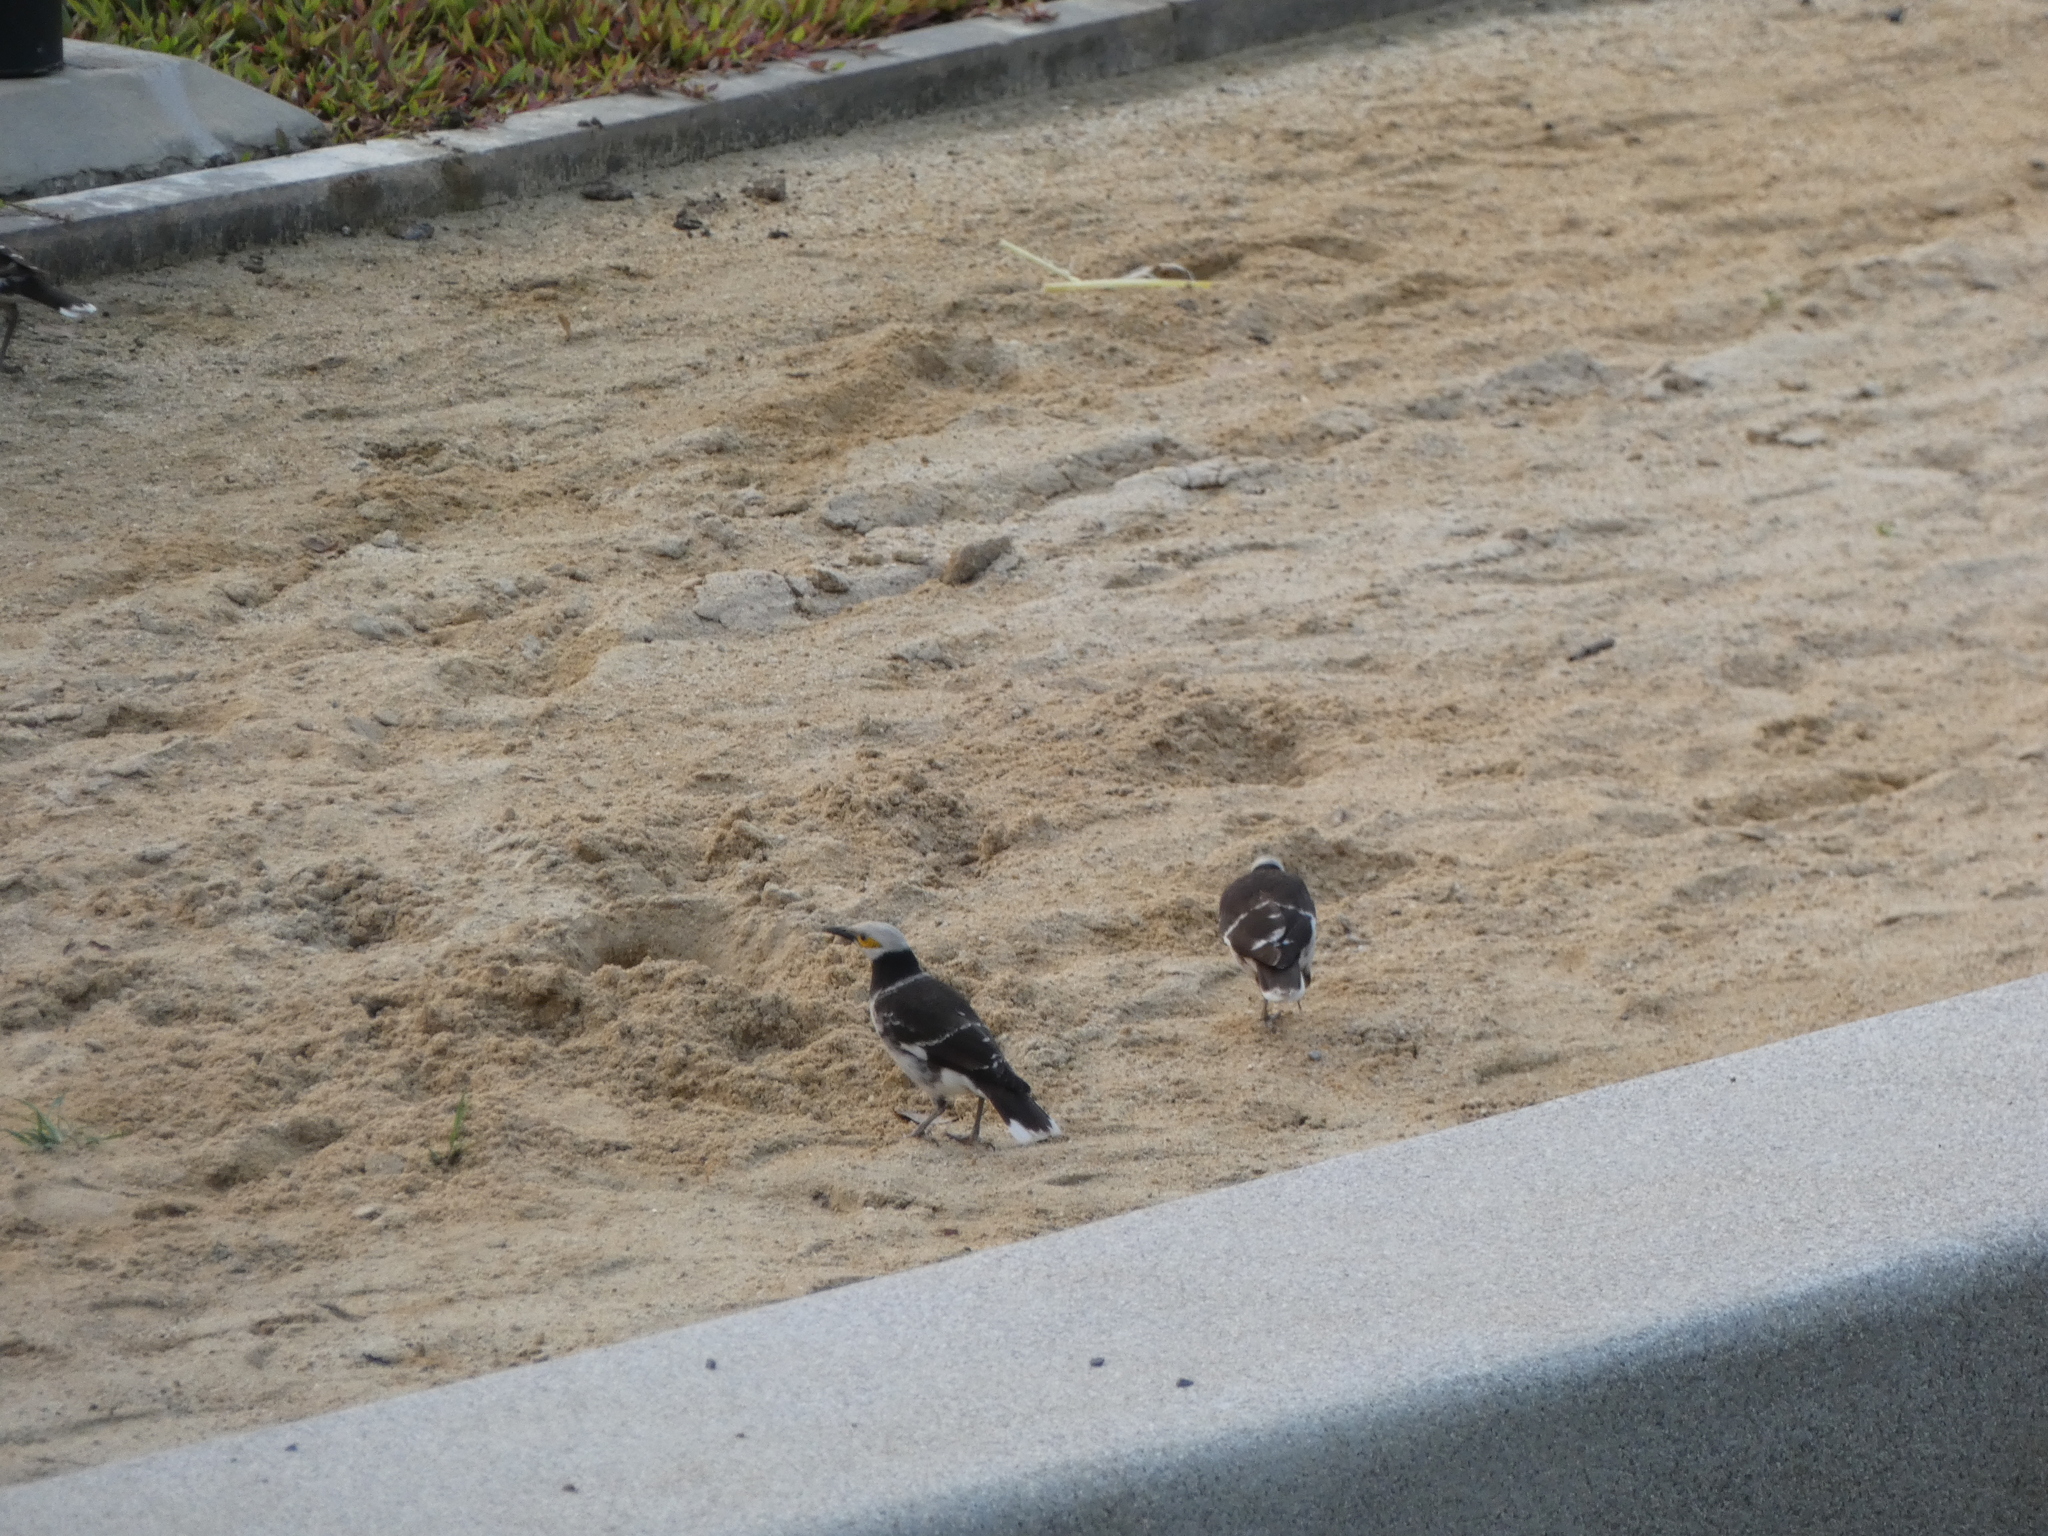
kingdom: Animalia
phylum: Chordata
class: Aves
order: Passeriformes
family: Sturnidae
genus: Gracupica
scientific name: Gracupica nigricollis
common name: Black-collared starling
